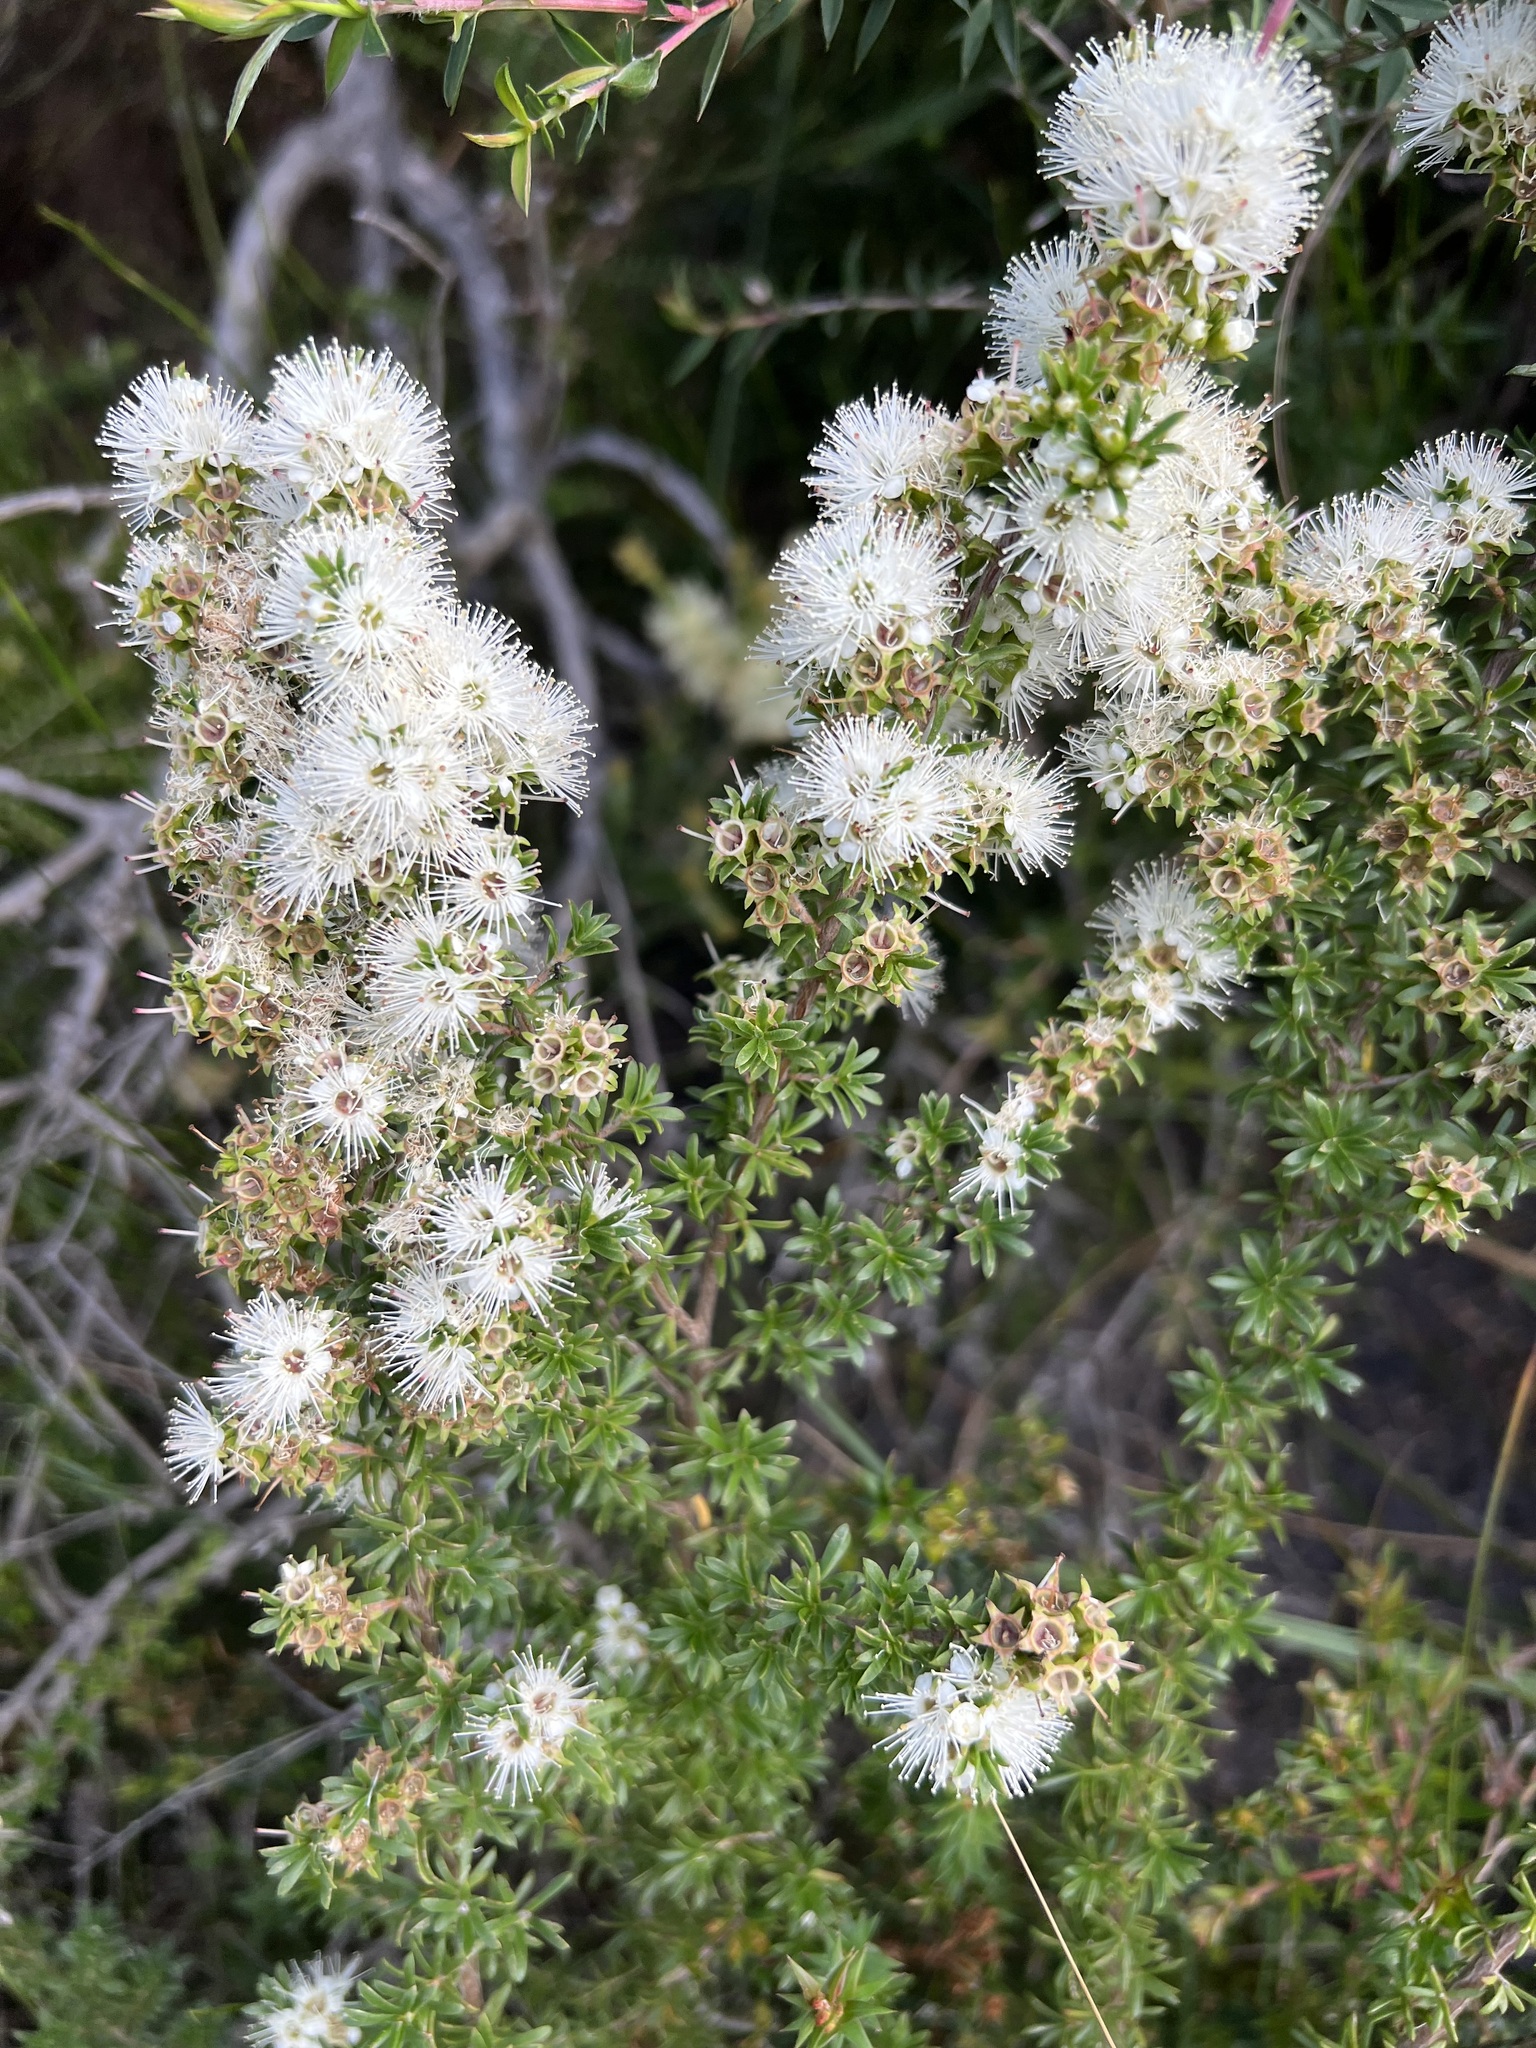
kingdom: Plantae
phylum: Tracheophyta
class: Magnoliopsida
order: Myrtales
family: Myrtaceae
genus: Kunzea
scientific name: Kunzea ambigua
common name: Tickbush
